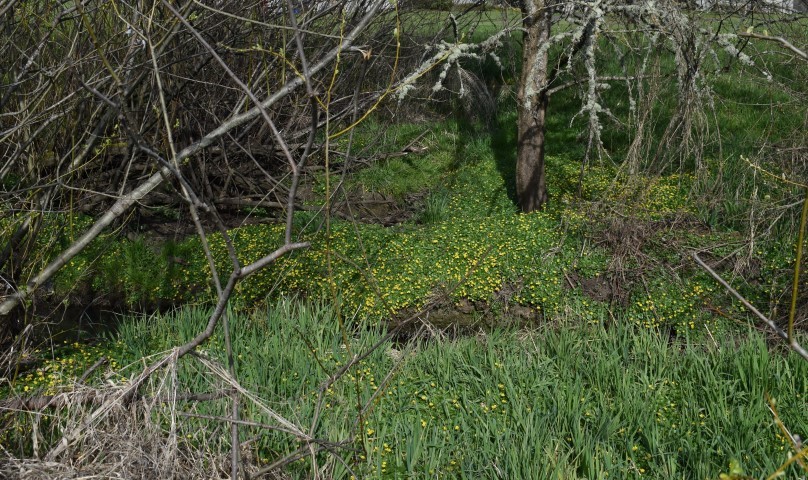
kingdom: Plantae
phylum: Tracheophyta
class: Magnoliopsida
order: Ranunculales
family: Ranunculaceae
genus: Ficaria
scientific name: Ficaria verna
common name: Lesser celandine
